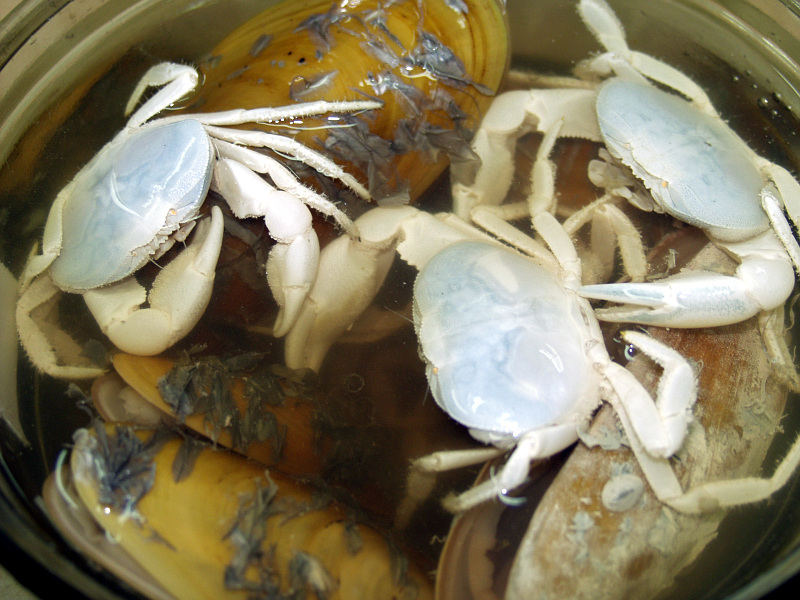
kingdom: Animalia
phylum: Arthropoda
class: Malacostraca
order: Decapoda
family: Bythograeidae
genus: Bythograea
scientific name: Bythograea thermydron
